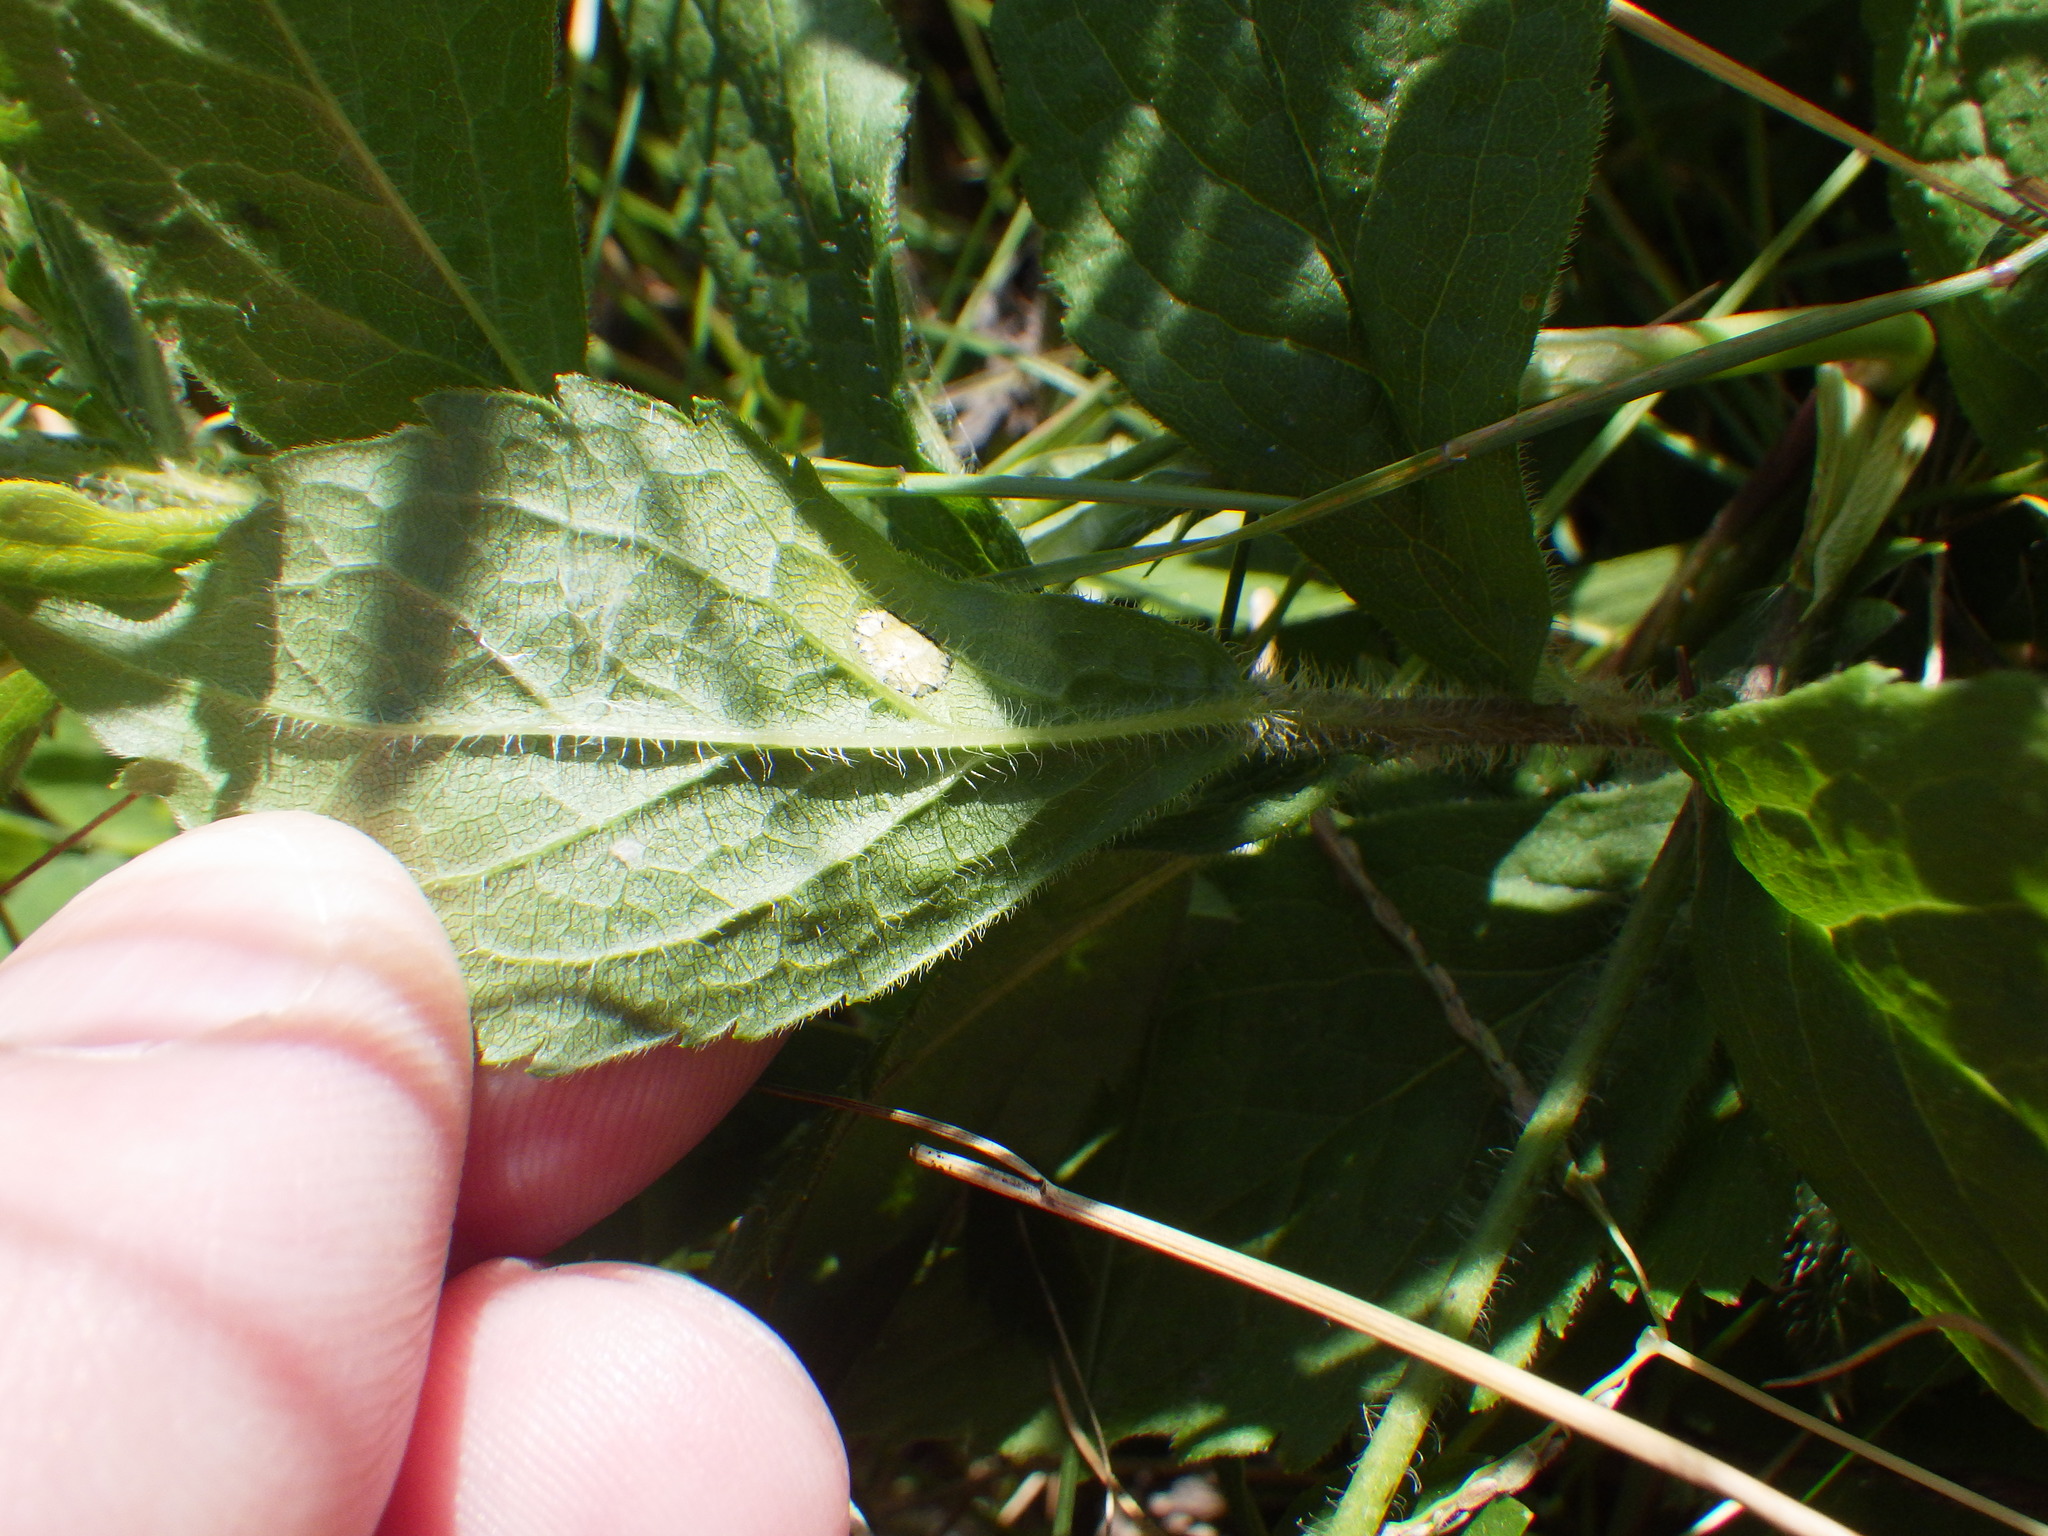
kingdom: Animalia
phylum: Arthropoda
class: Insecta
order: Diptera
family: Cecidomyiidae
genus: Asteromyia
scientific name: Asteromyia carbonifera
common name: Carbonifera goldenrod gall midge
